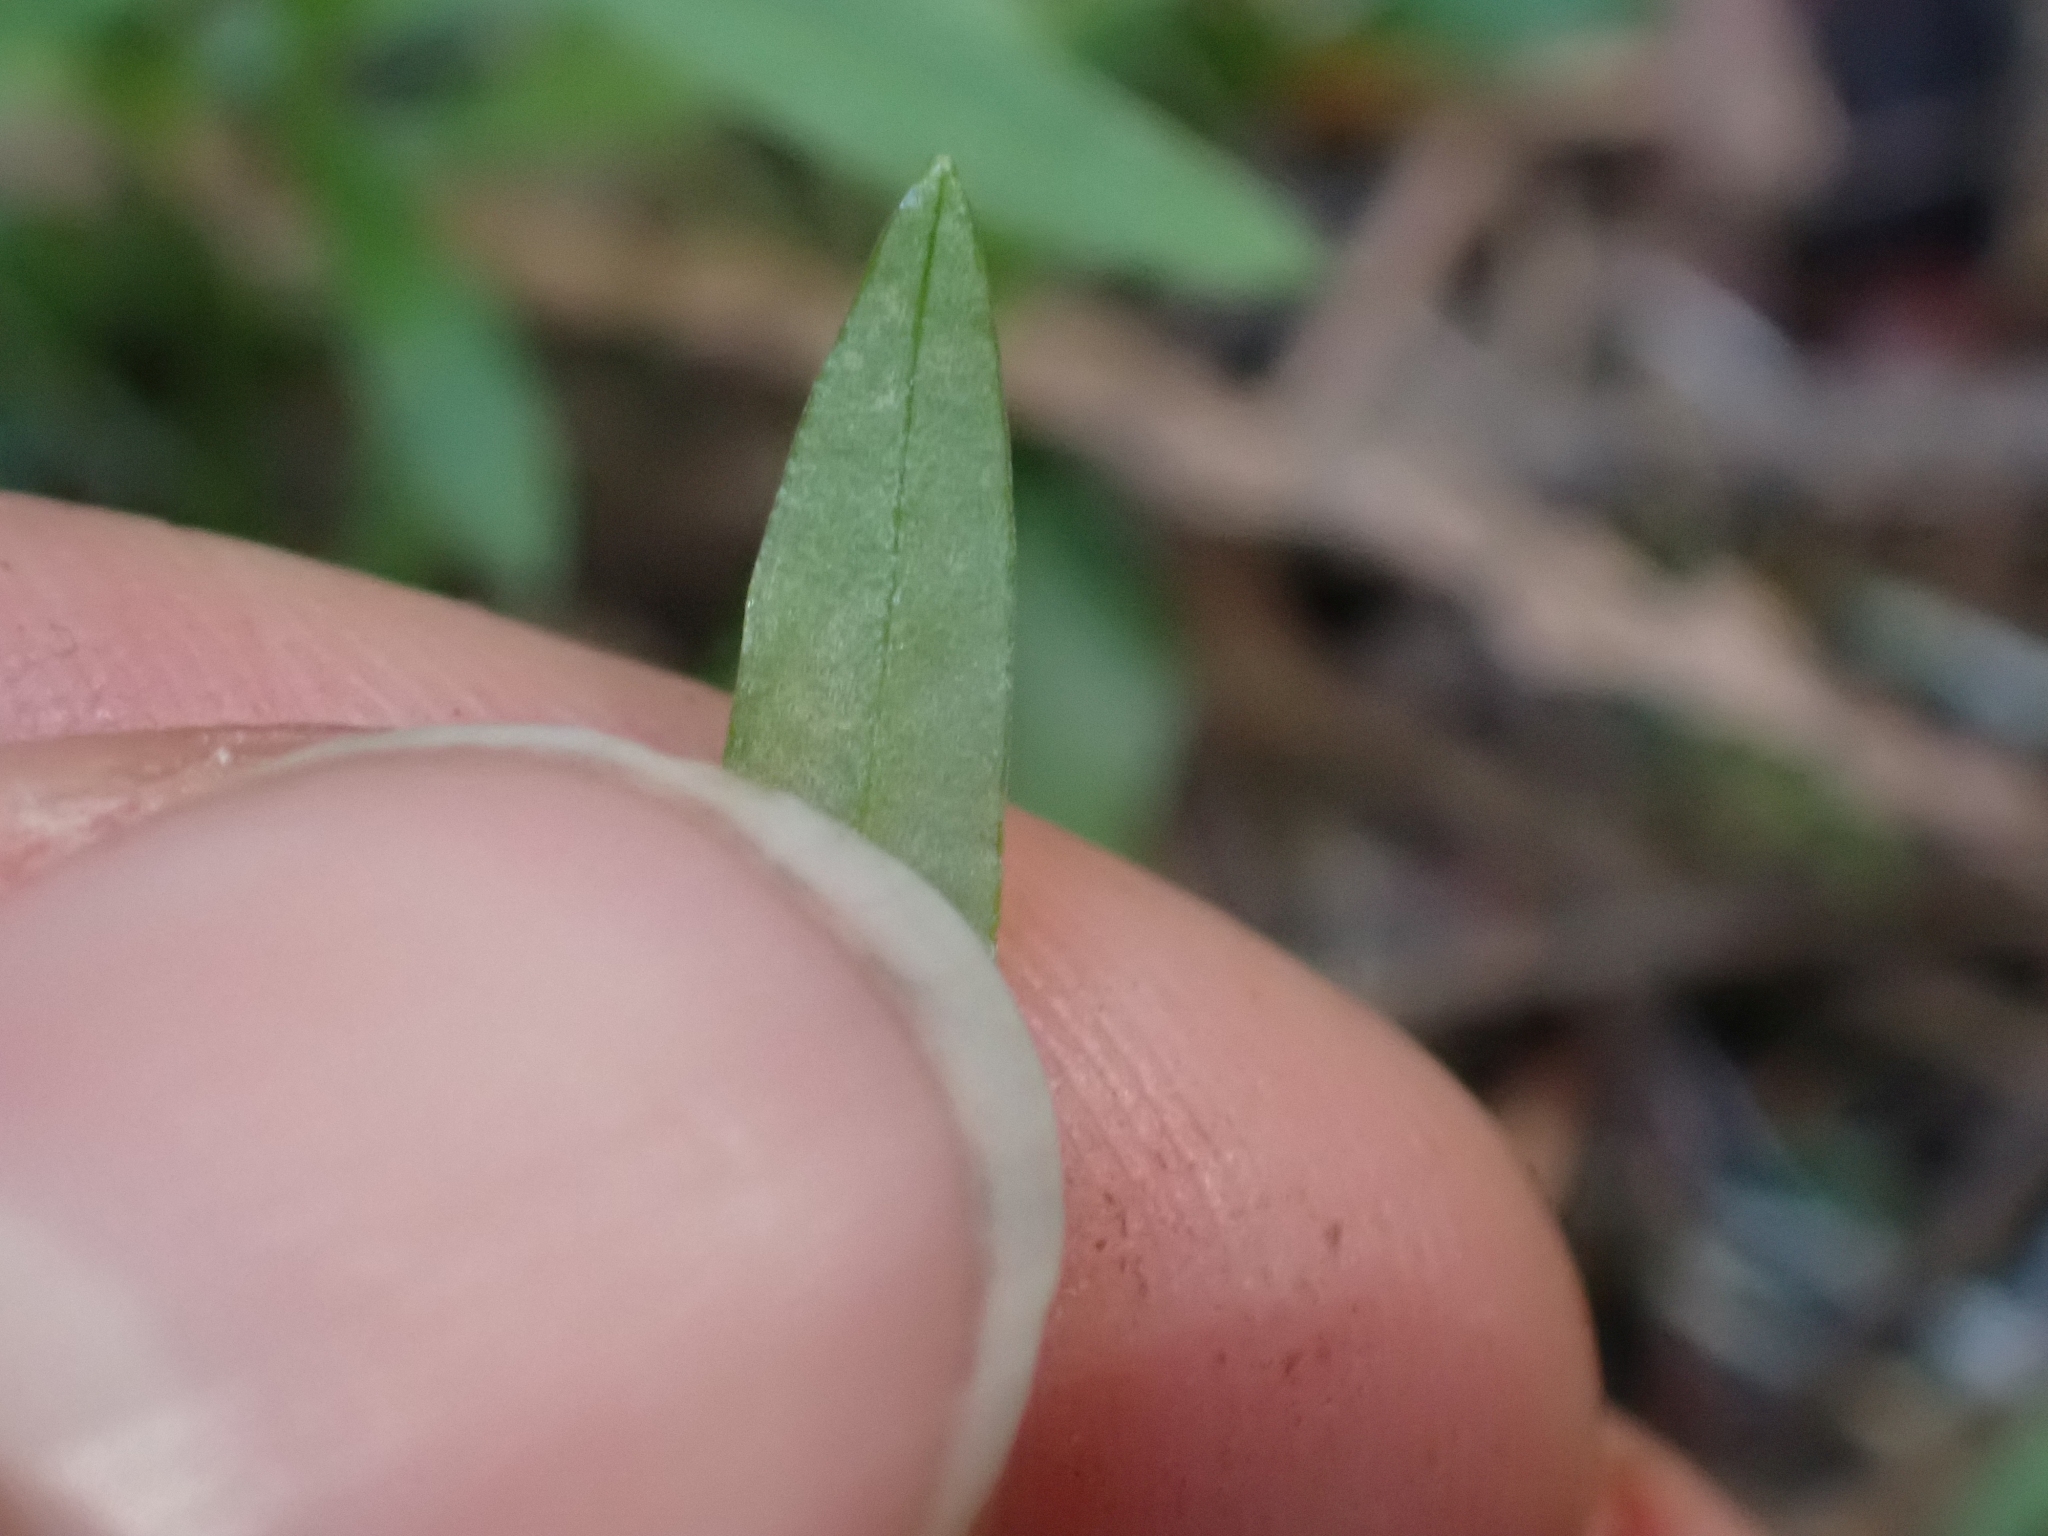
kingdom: Plantae
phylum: Tracheophyta
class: Magnoliopsida
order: Caryophyllales
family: Caryophyllaceae
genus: Moehringia
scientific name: Moehringia macrophylla
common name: Big-leaf sandwort
